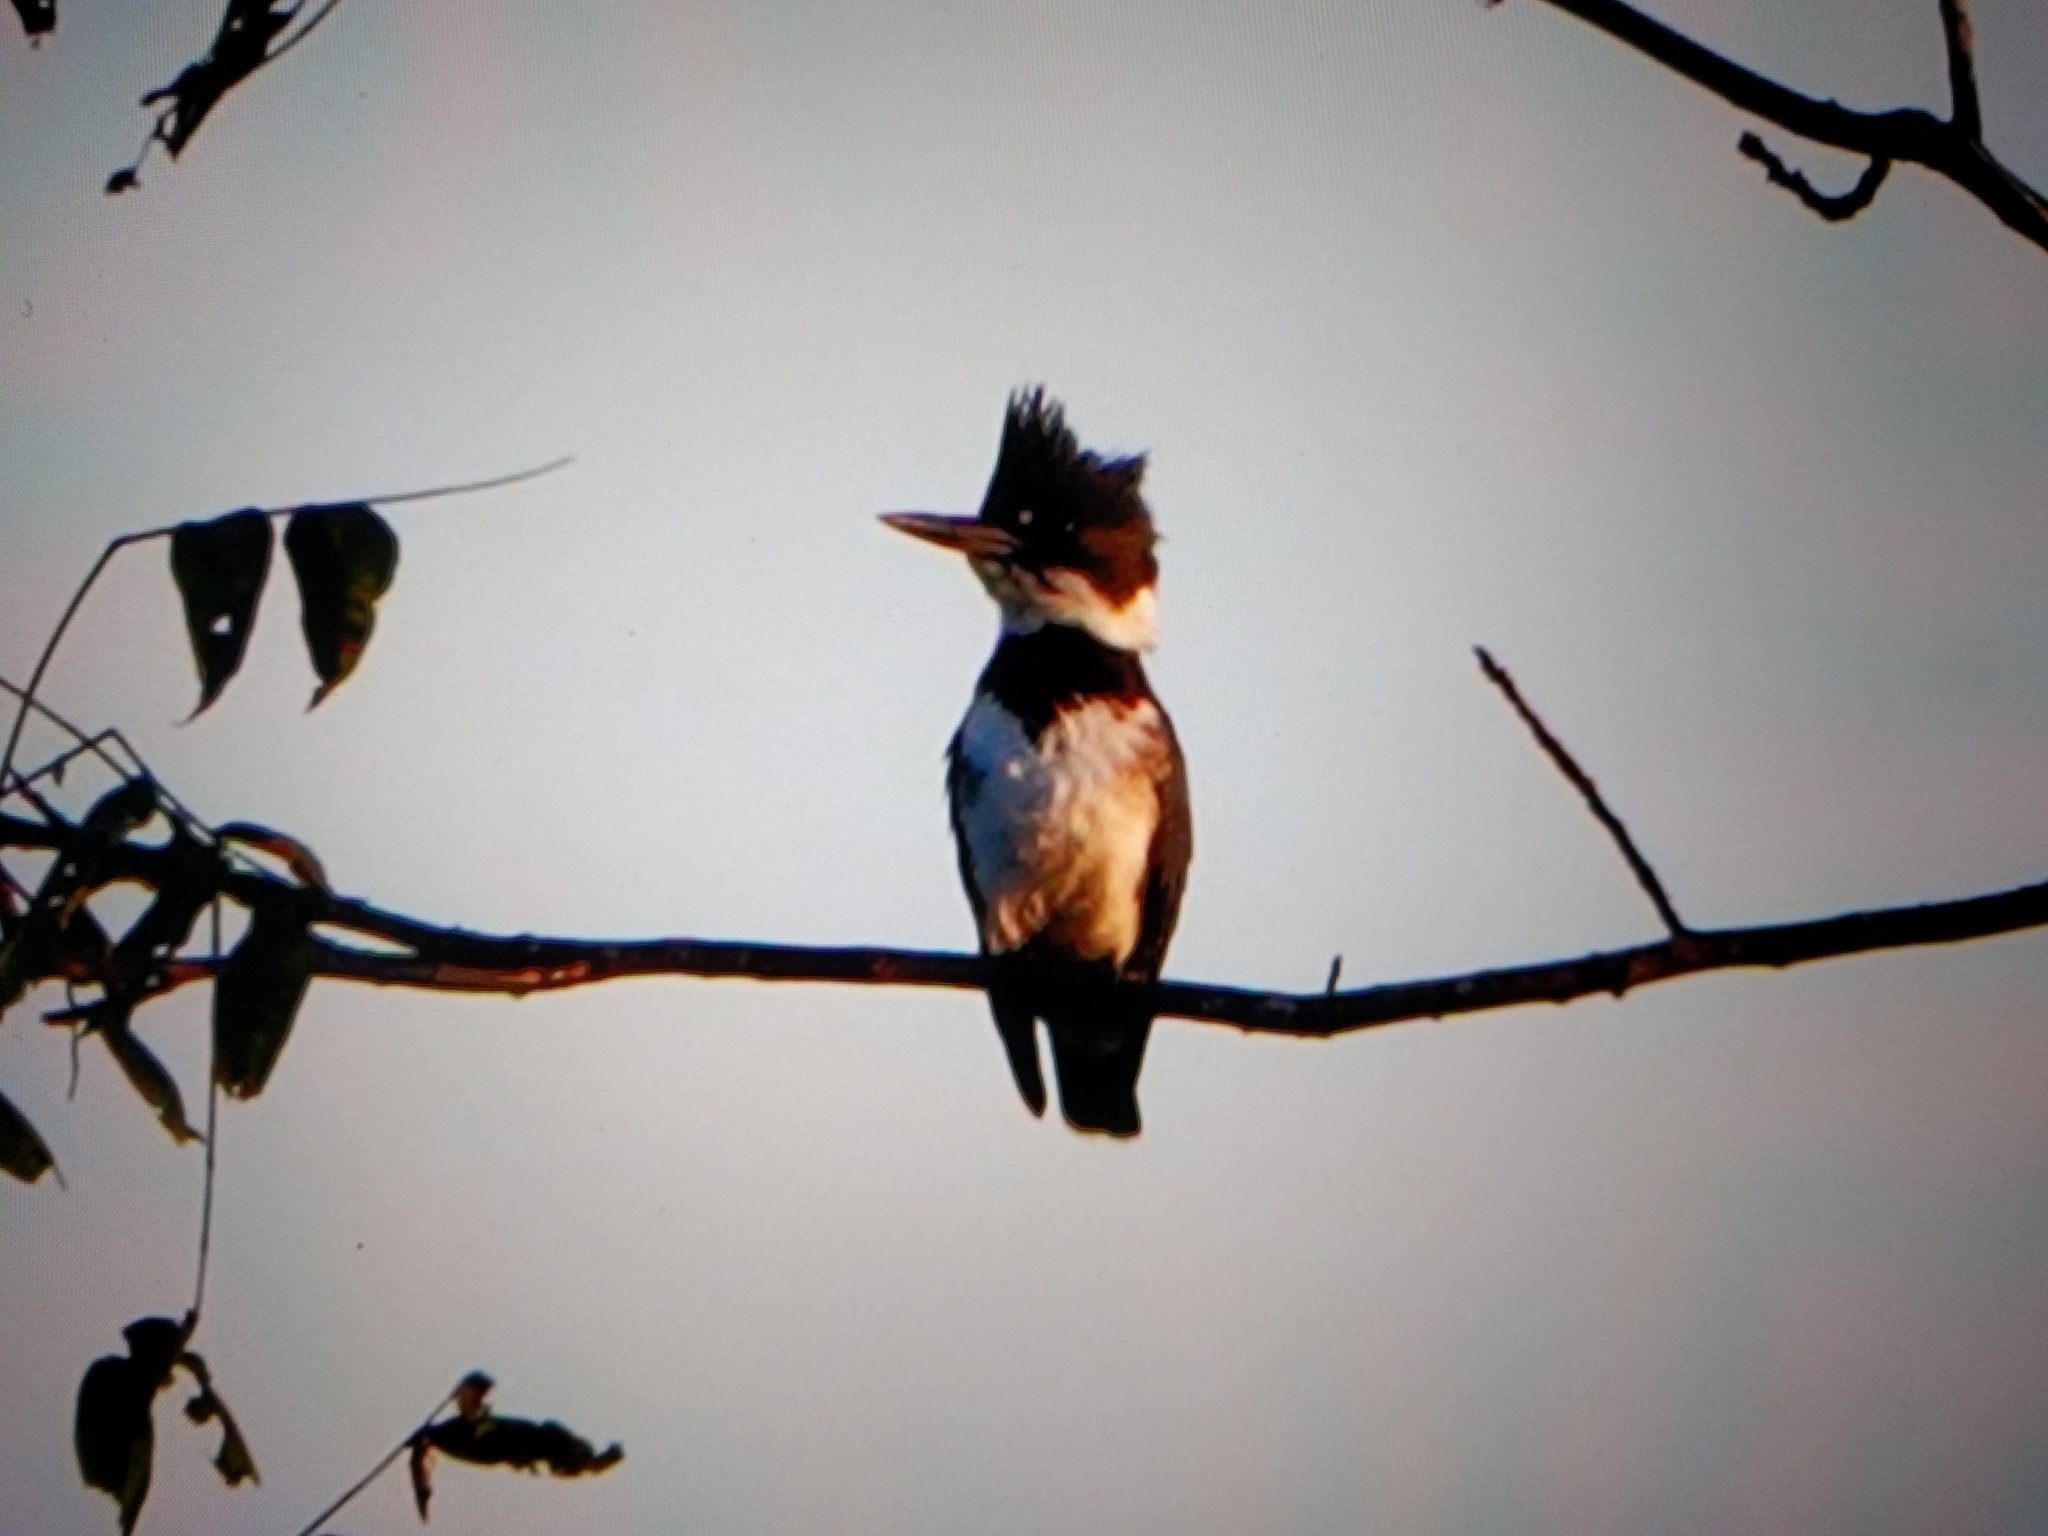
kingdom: Animalia
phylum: Chordata
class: Aves
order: Coraciiformes
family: Alcedinidae
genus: Megaceryle
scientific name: Megaceryle alcyon
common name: Belted kingfisher
